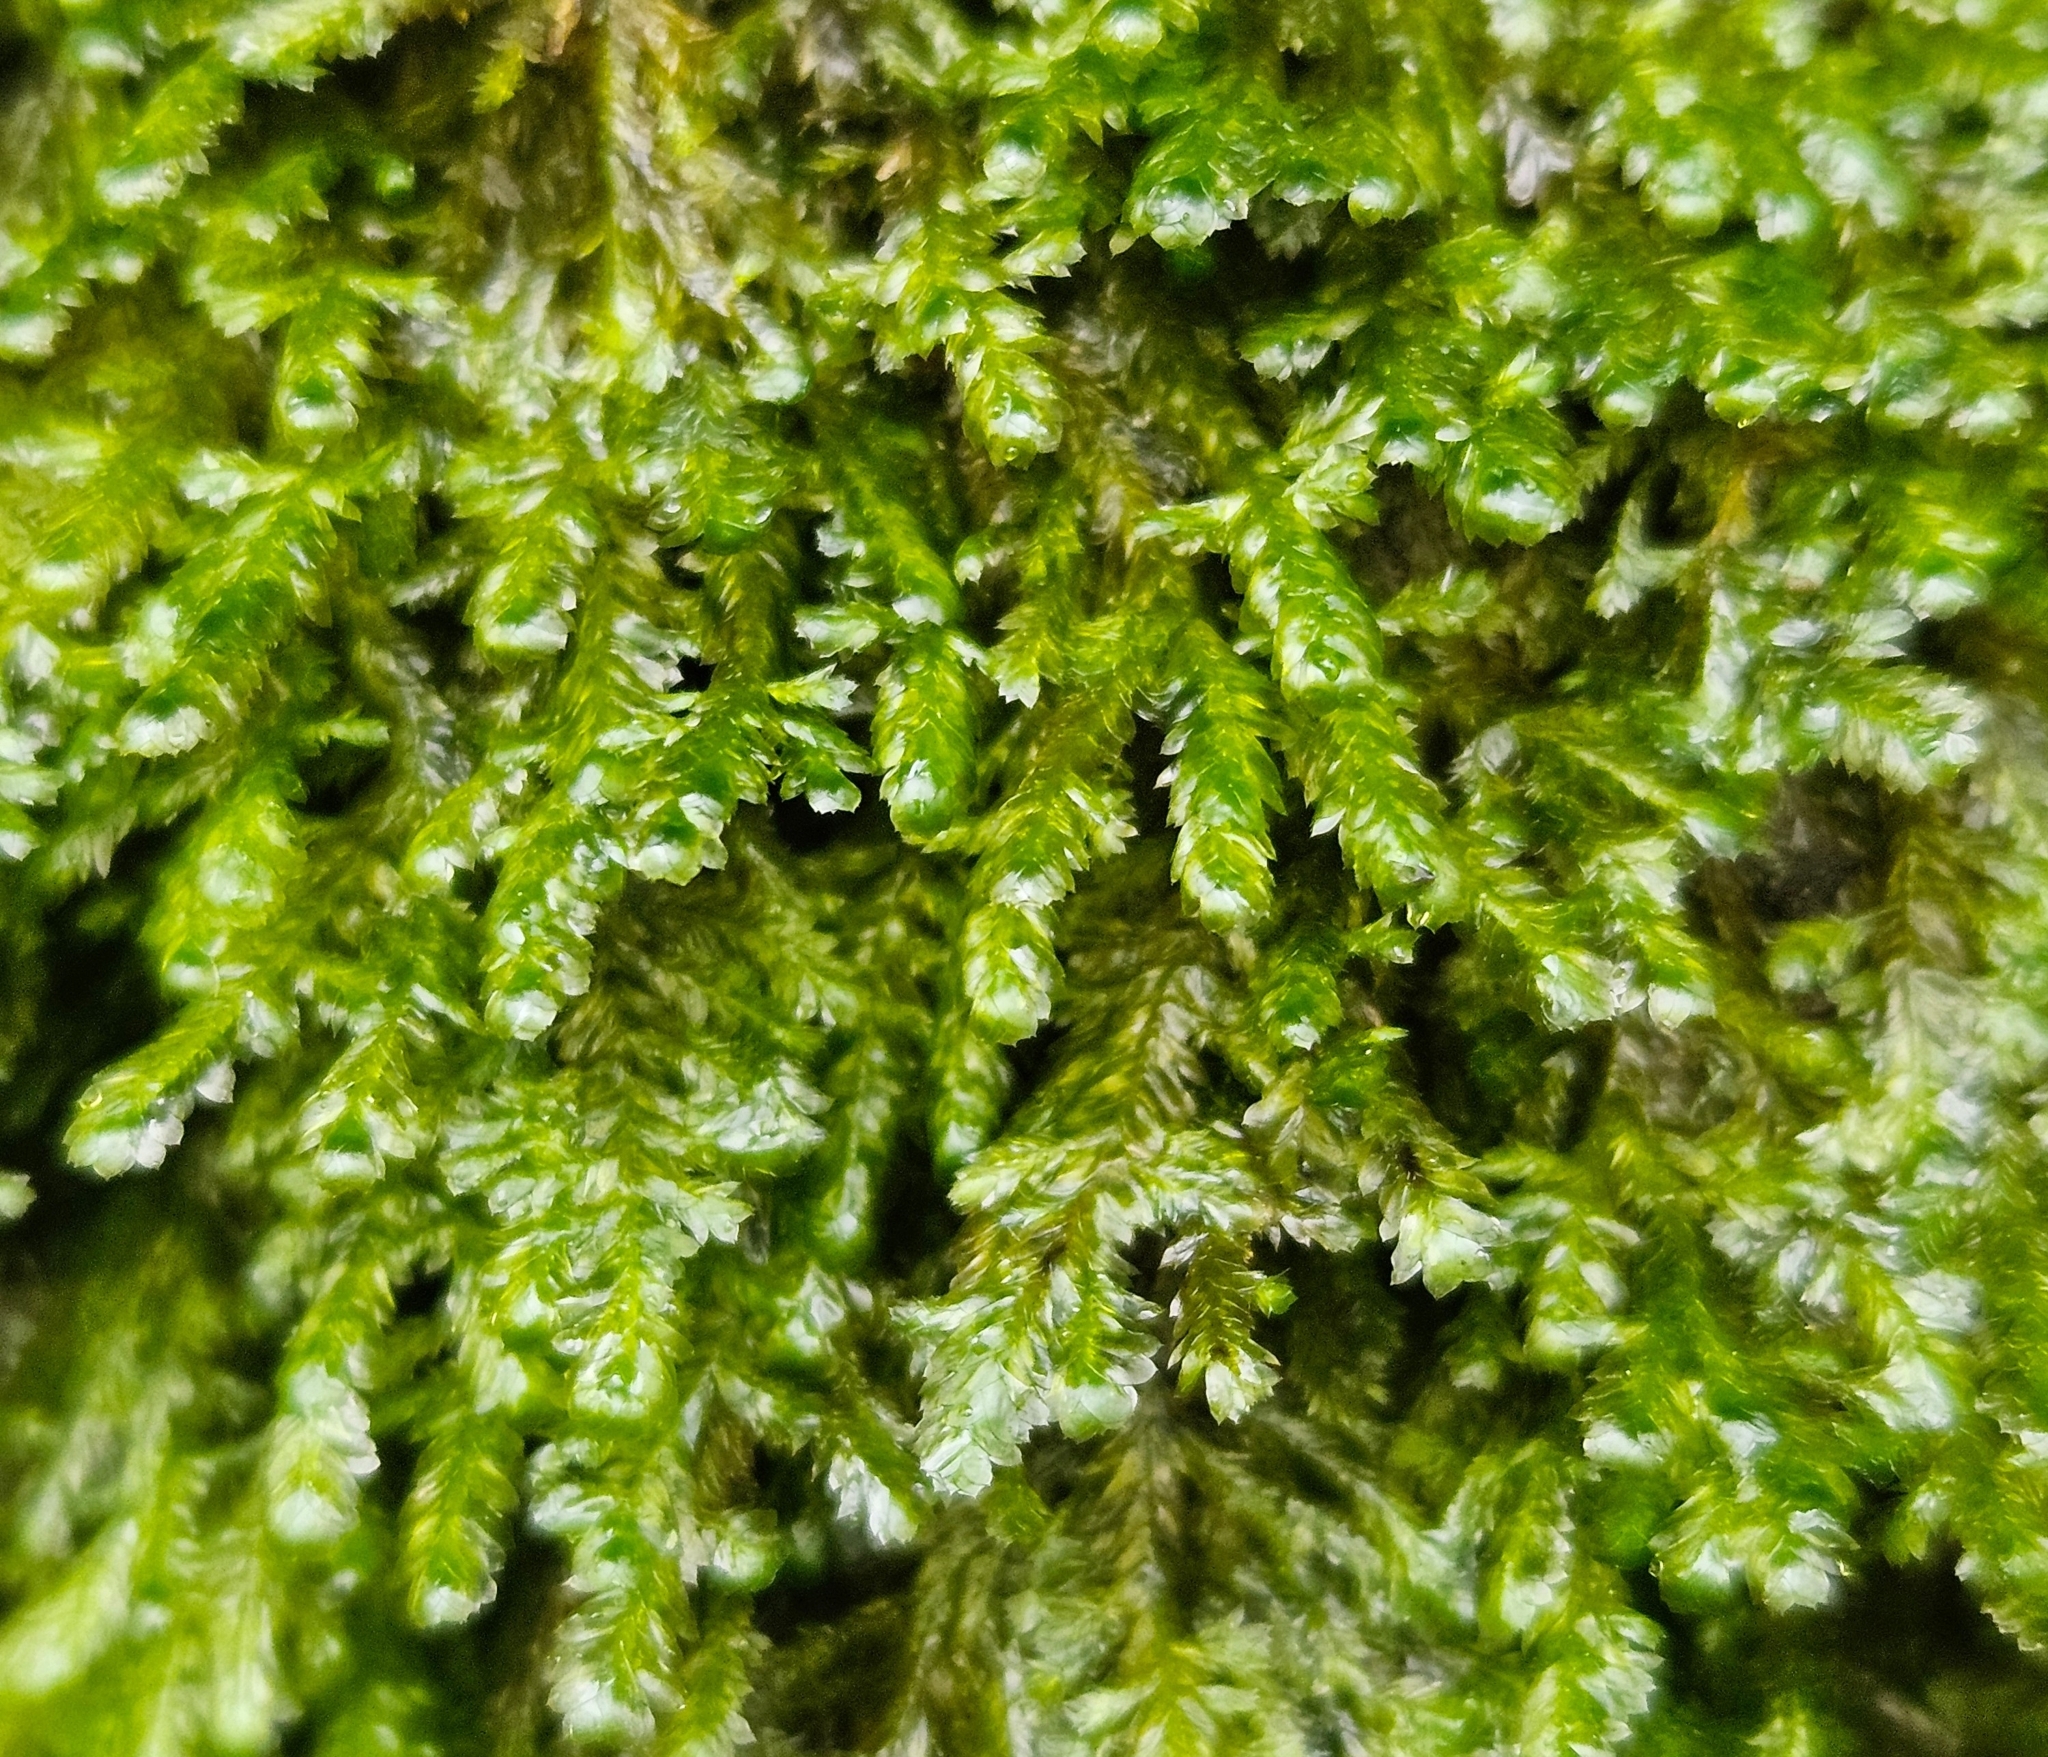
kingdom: Plantae
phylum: Bryophyta
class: Bryopsida
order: Hypnales
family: Neckeraceae
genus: Alleniella
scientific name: Alleniella complanata
